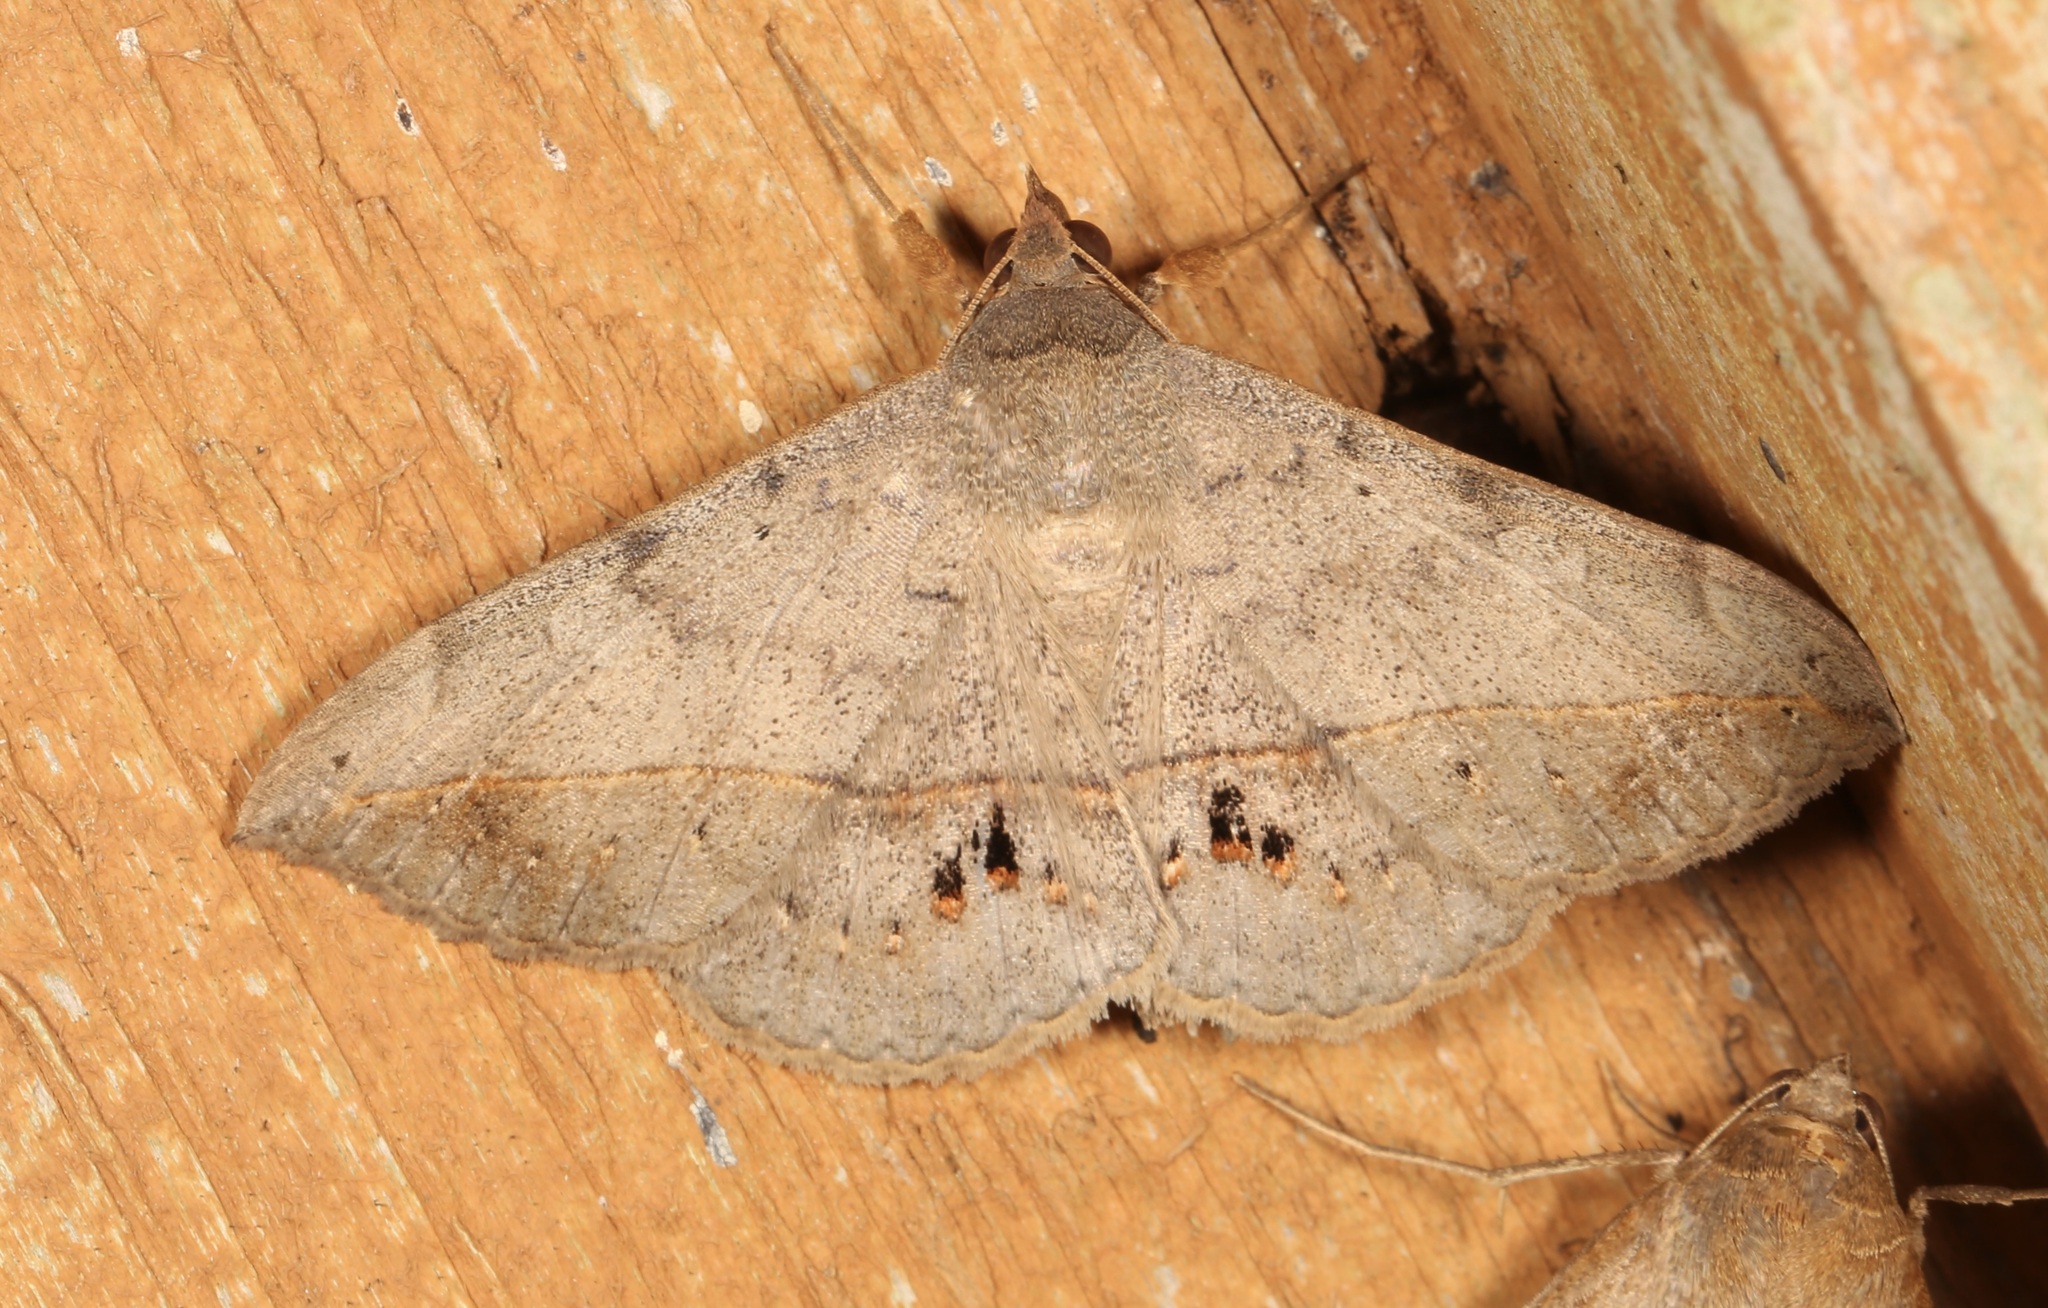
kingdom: Animalia
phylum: Arthropoda
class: Insecta
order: Lepidoptera
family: Erebidae
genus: Anticarsia
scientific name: Anticarsia gemmatalis
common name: Cutworm moth
